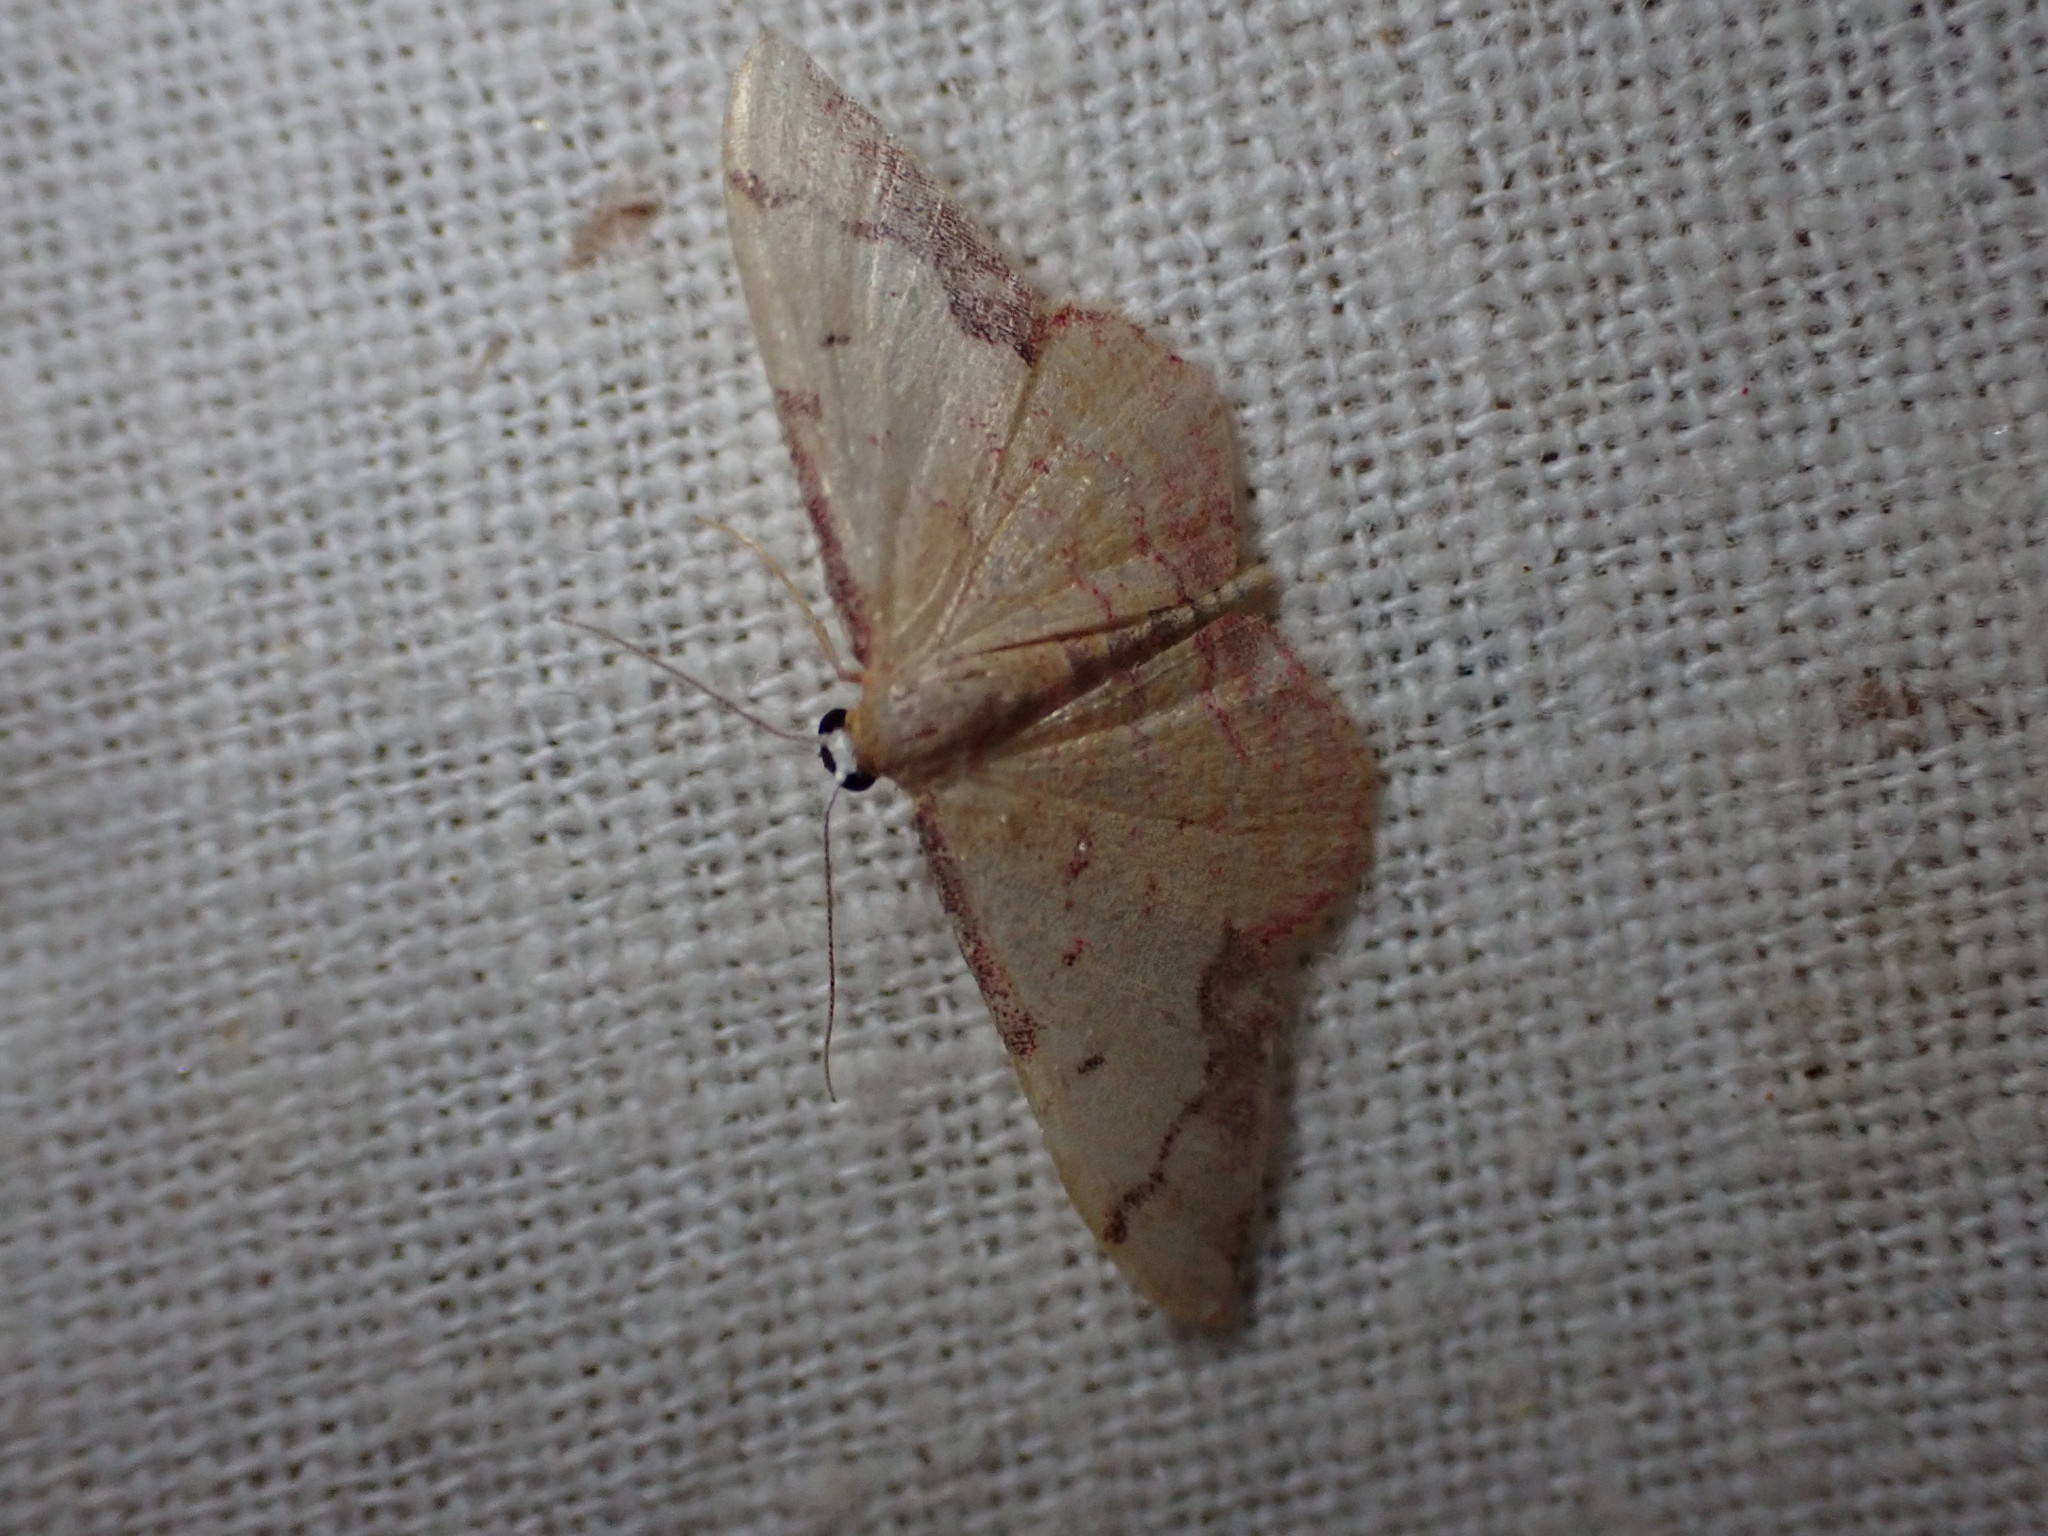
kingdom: Animalia
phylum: Arthropoda
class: Insecta
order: Lepidoptera
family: Geometridae
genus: Idaea
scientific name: Idaea ostrinaria
